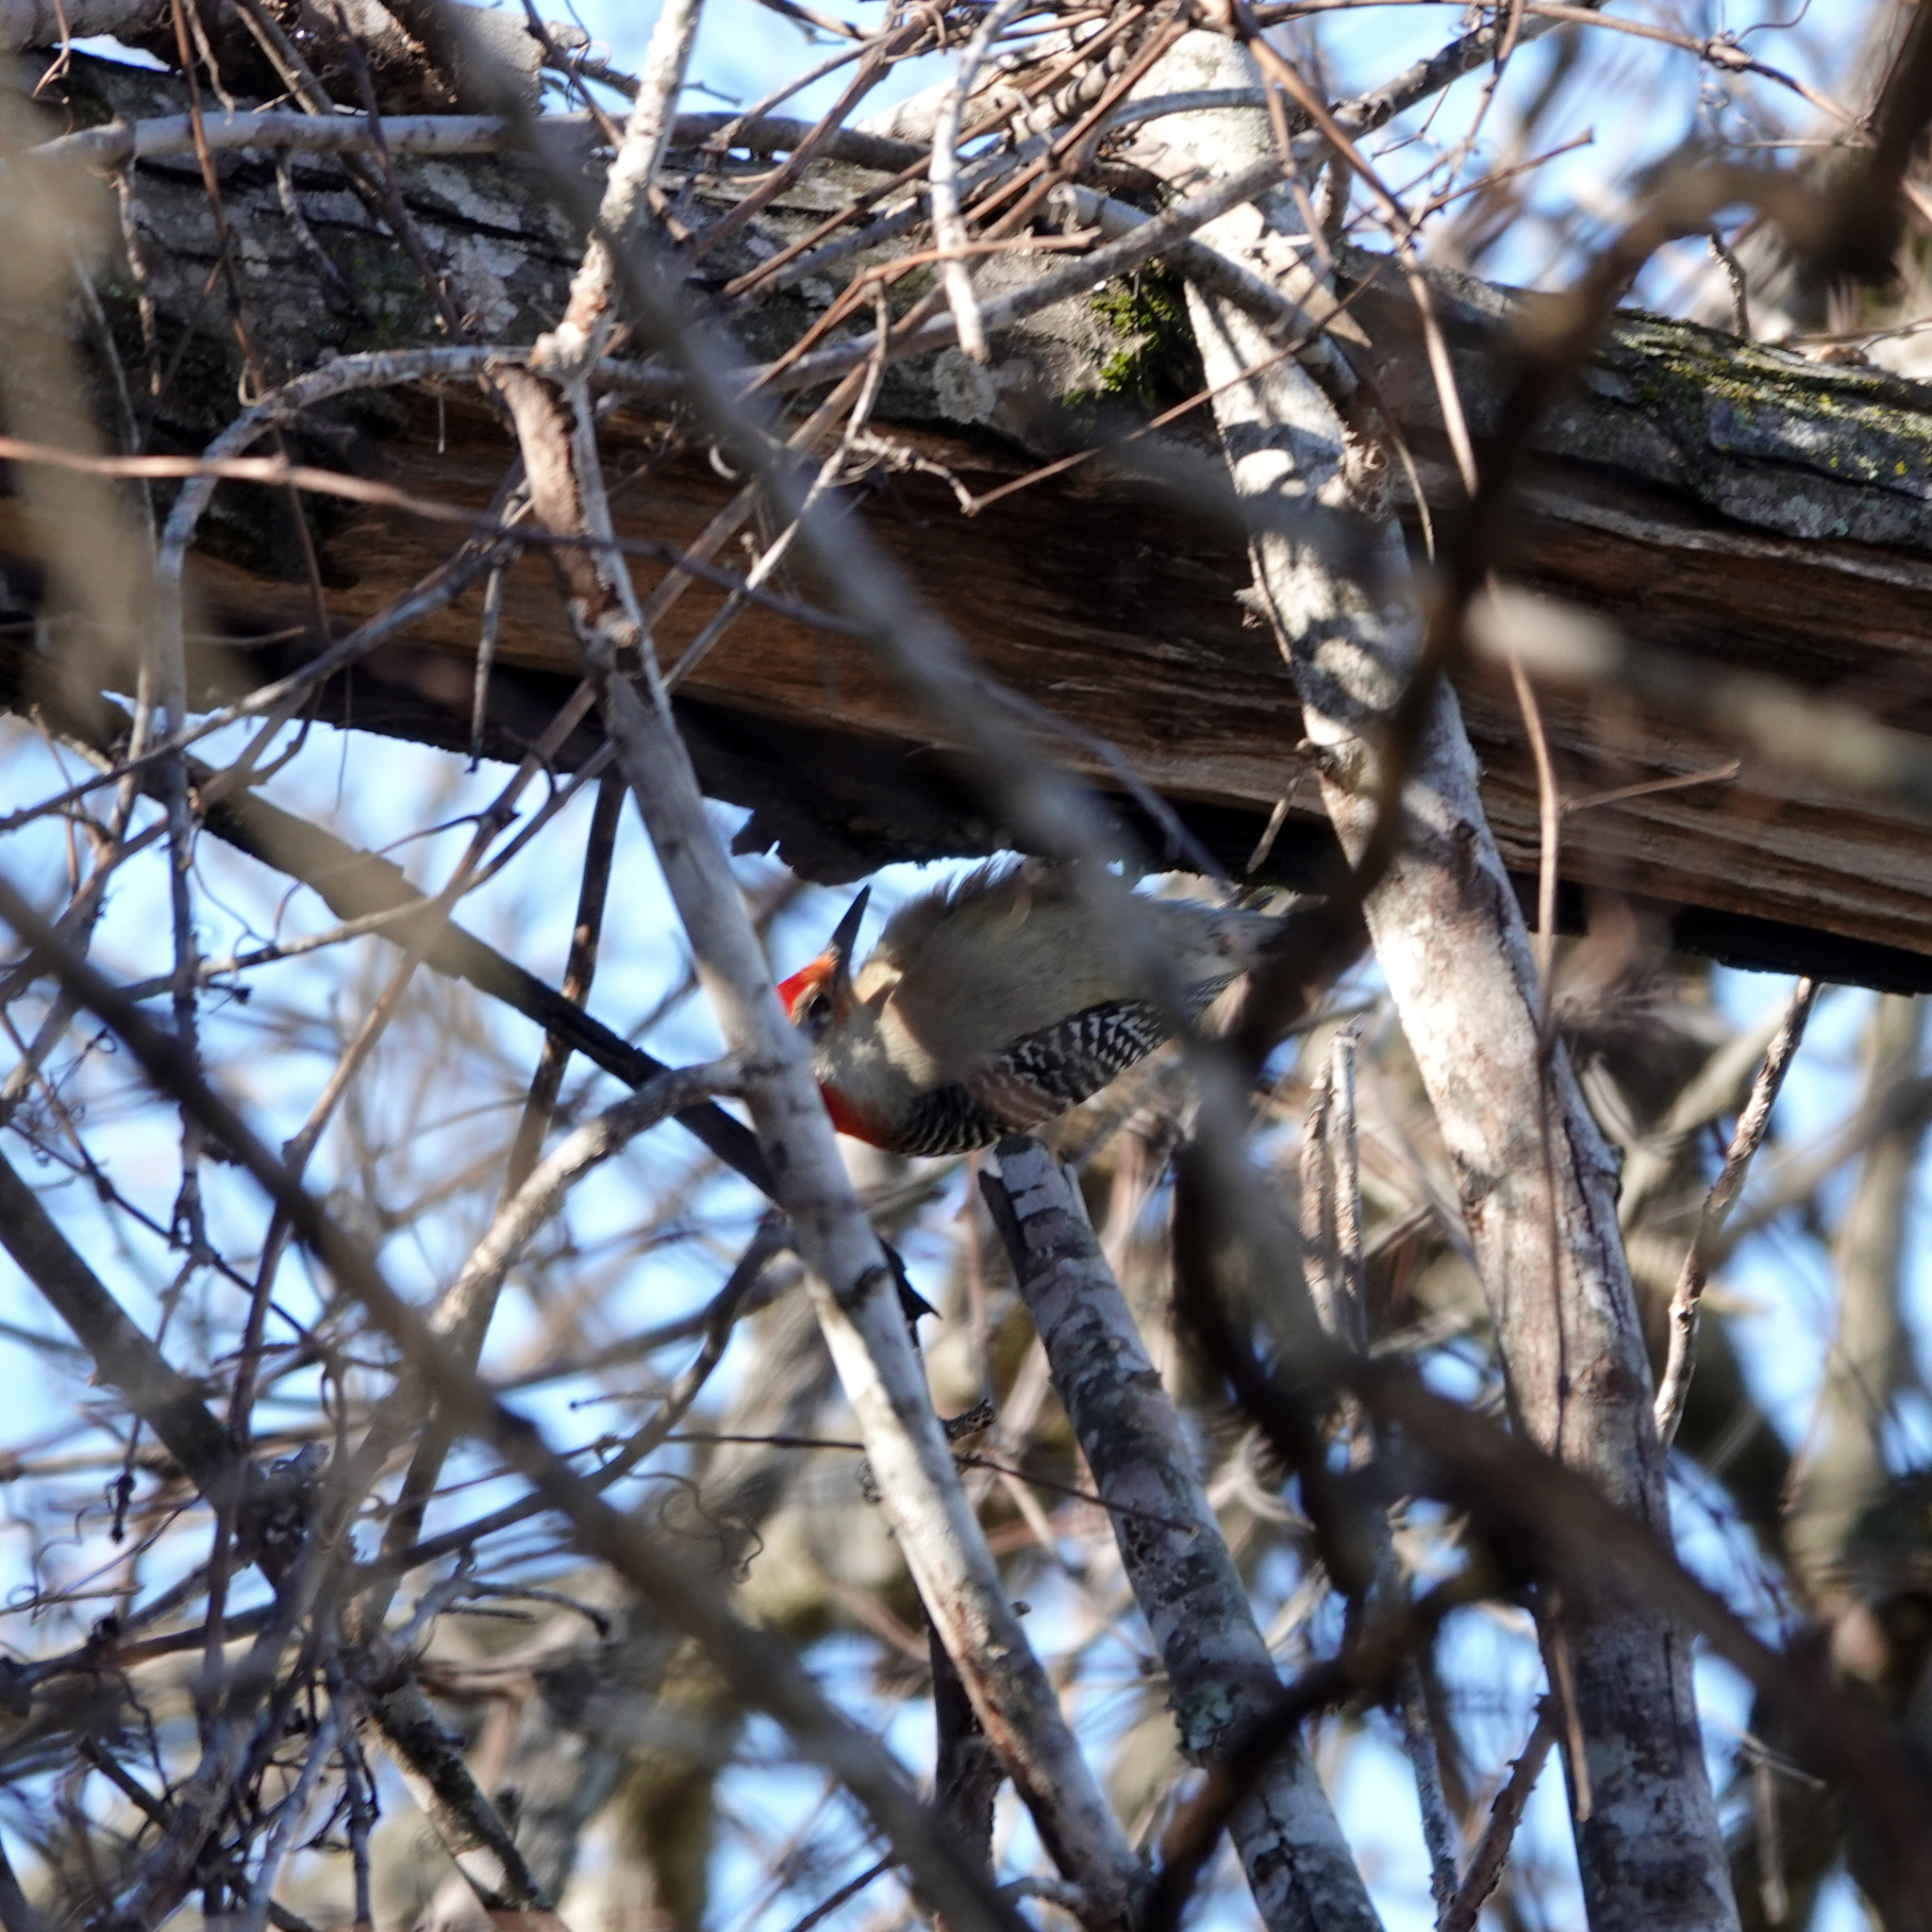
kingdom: Animalia
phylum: Chordata
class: Aves
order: Piciformes
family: Picidae
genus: Melanerpes
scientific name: Melanerpes carolinus
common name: Red-bellied woodpecker
